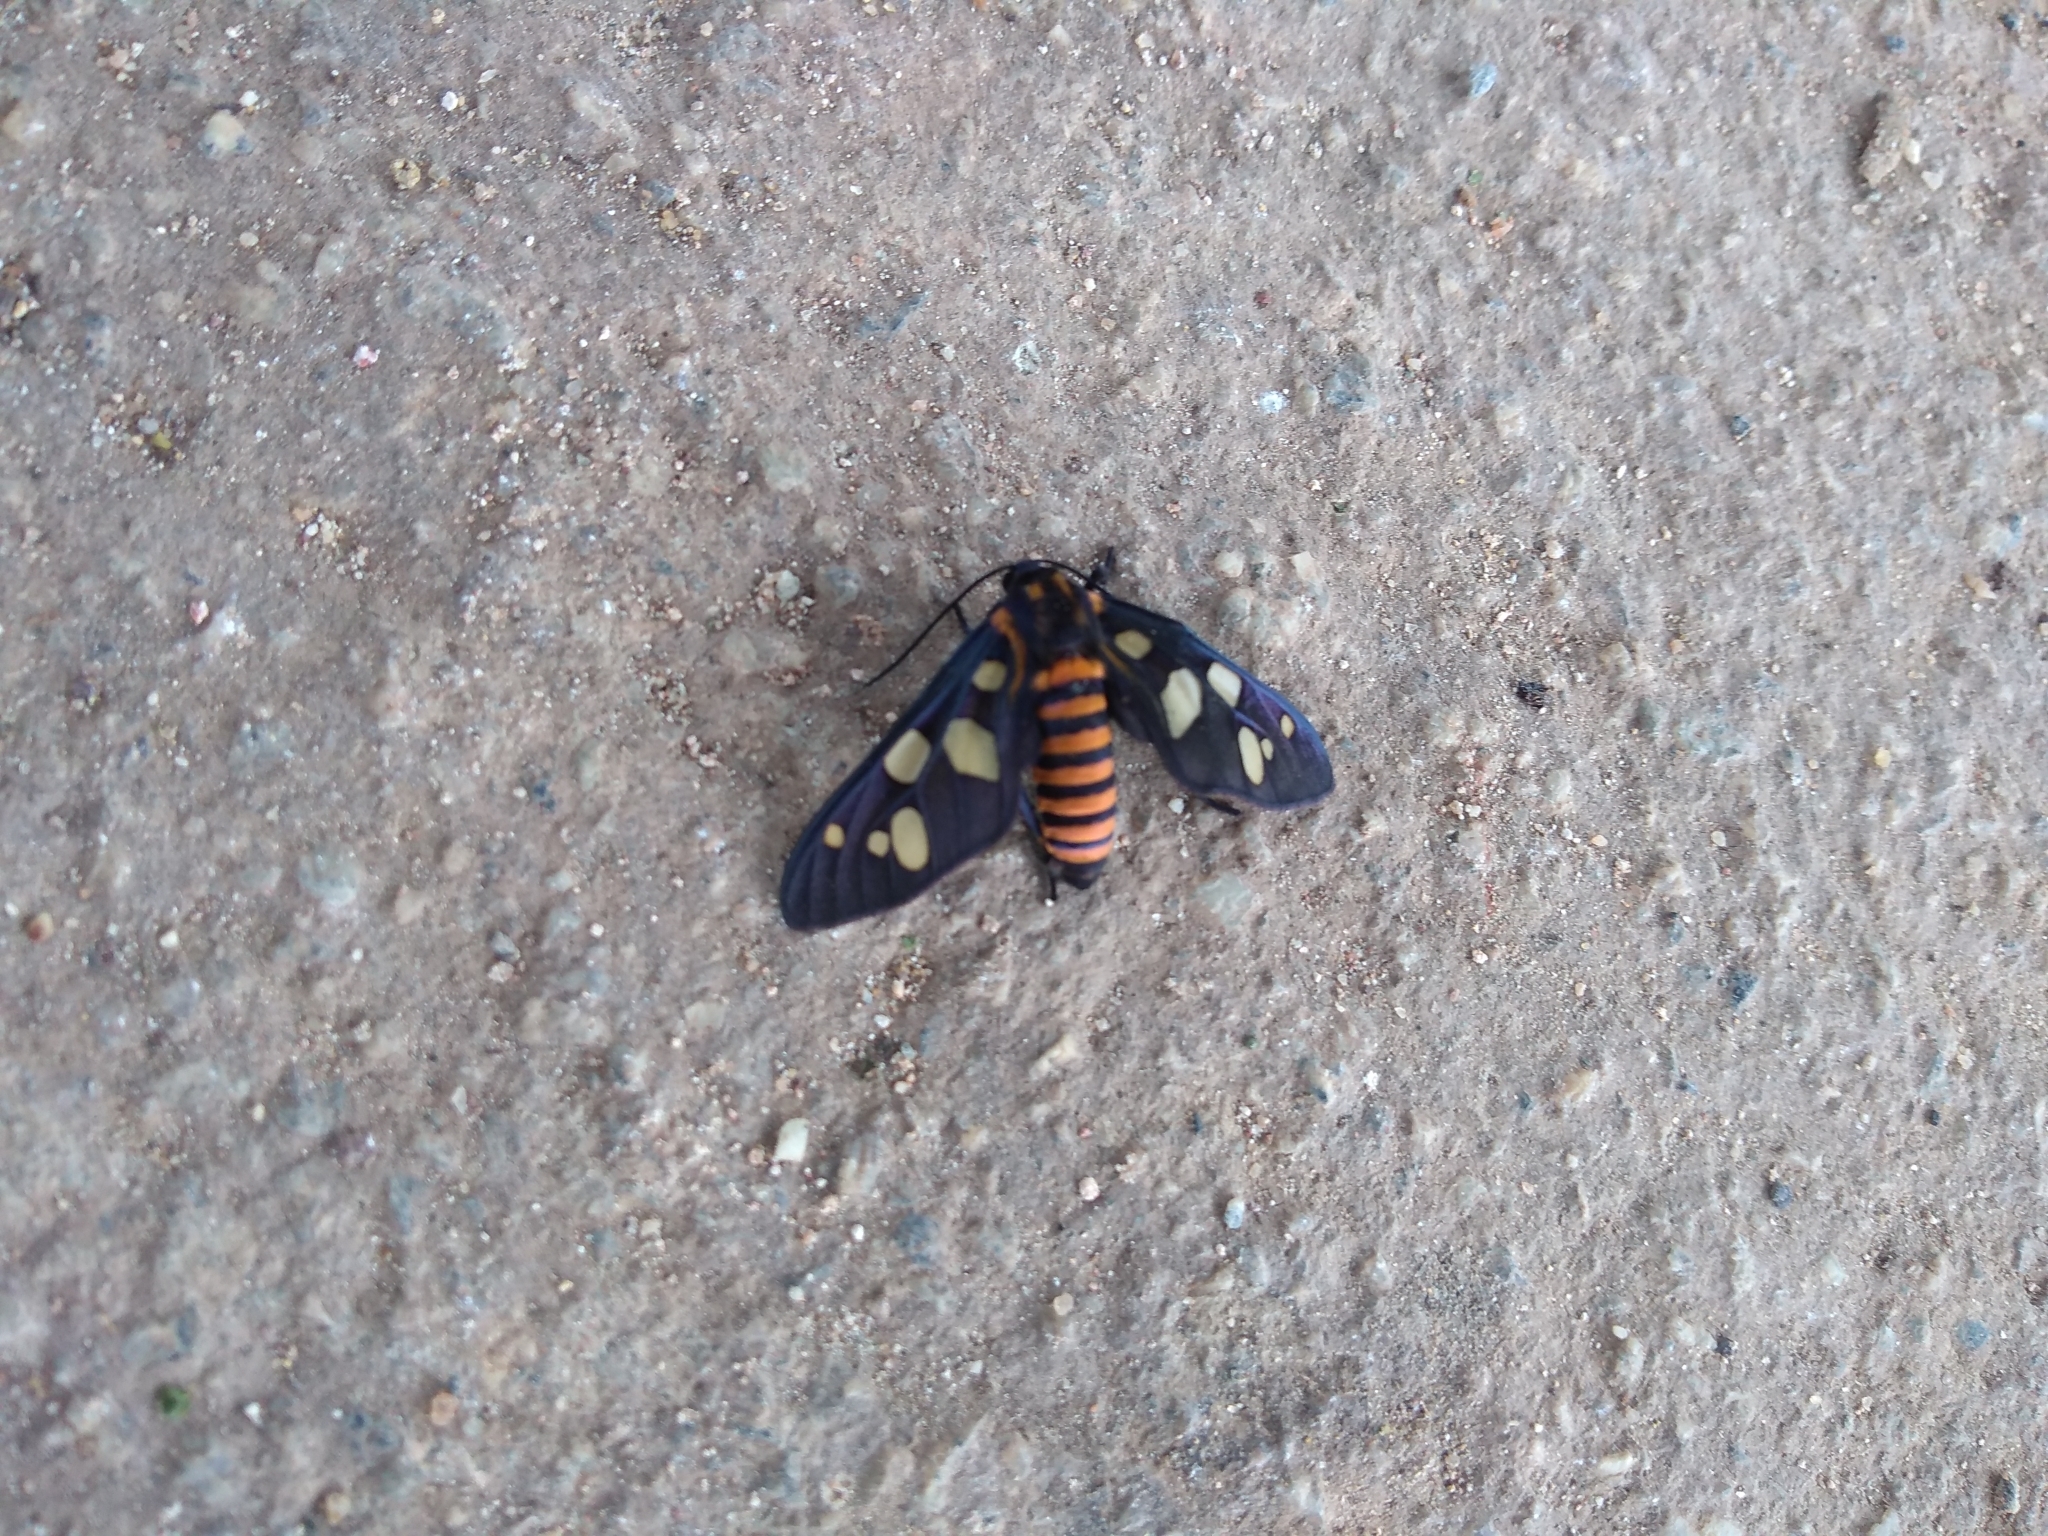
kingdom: Animalia
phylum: Arthropoda
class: Insecta
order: Lepidoptera
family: Erebidae
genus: Amata
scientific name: Amata passalis
